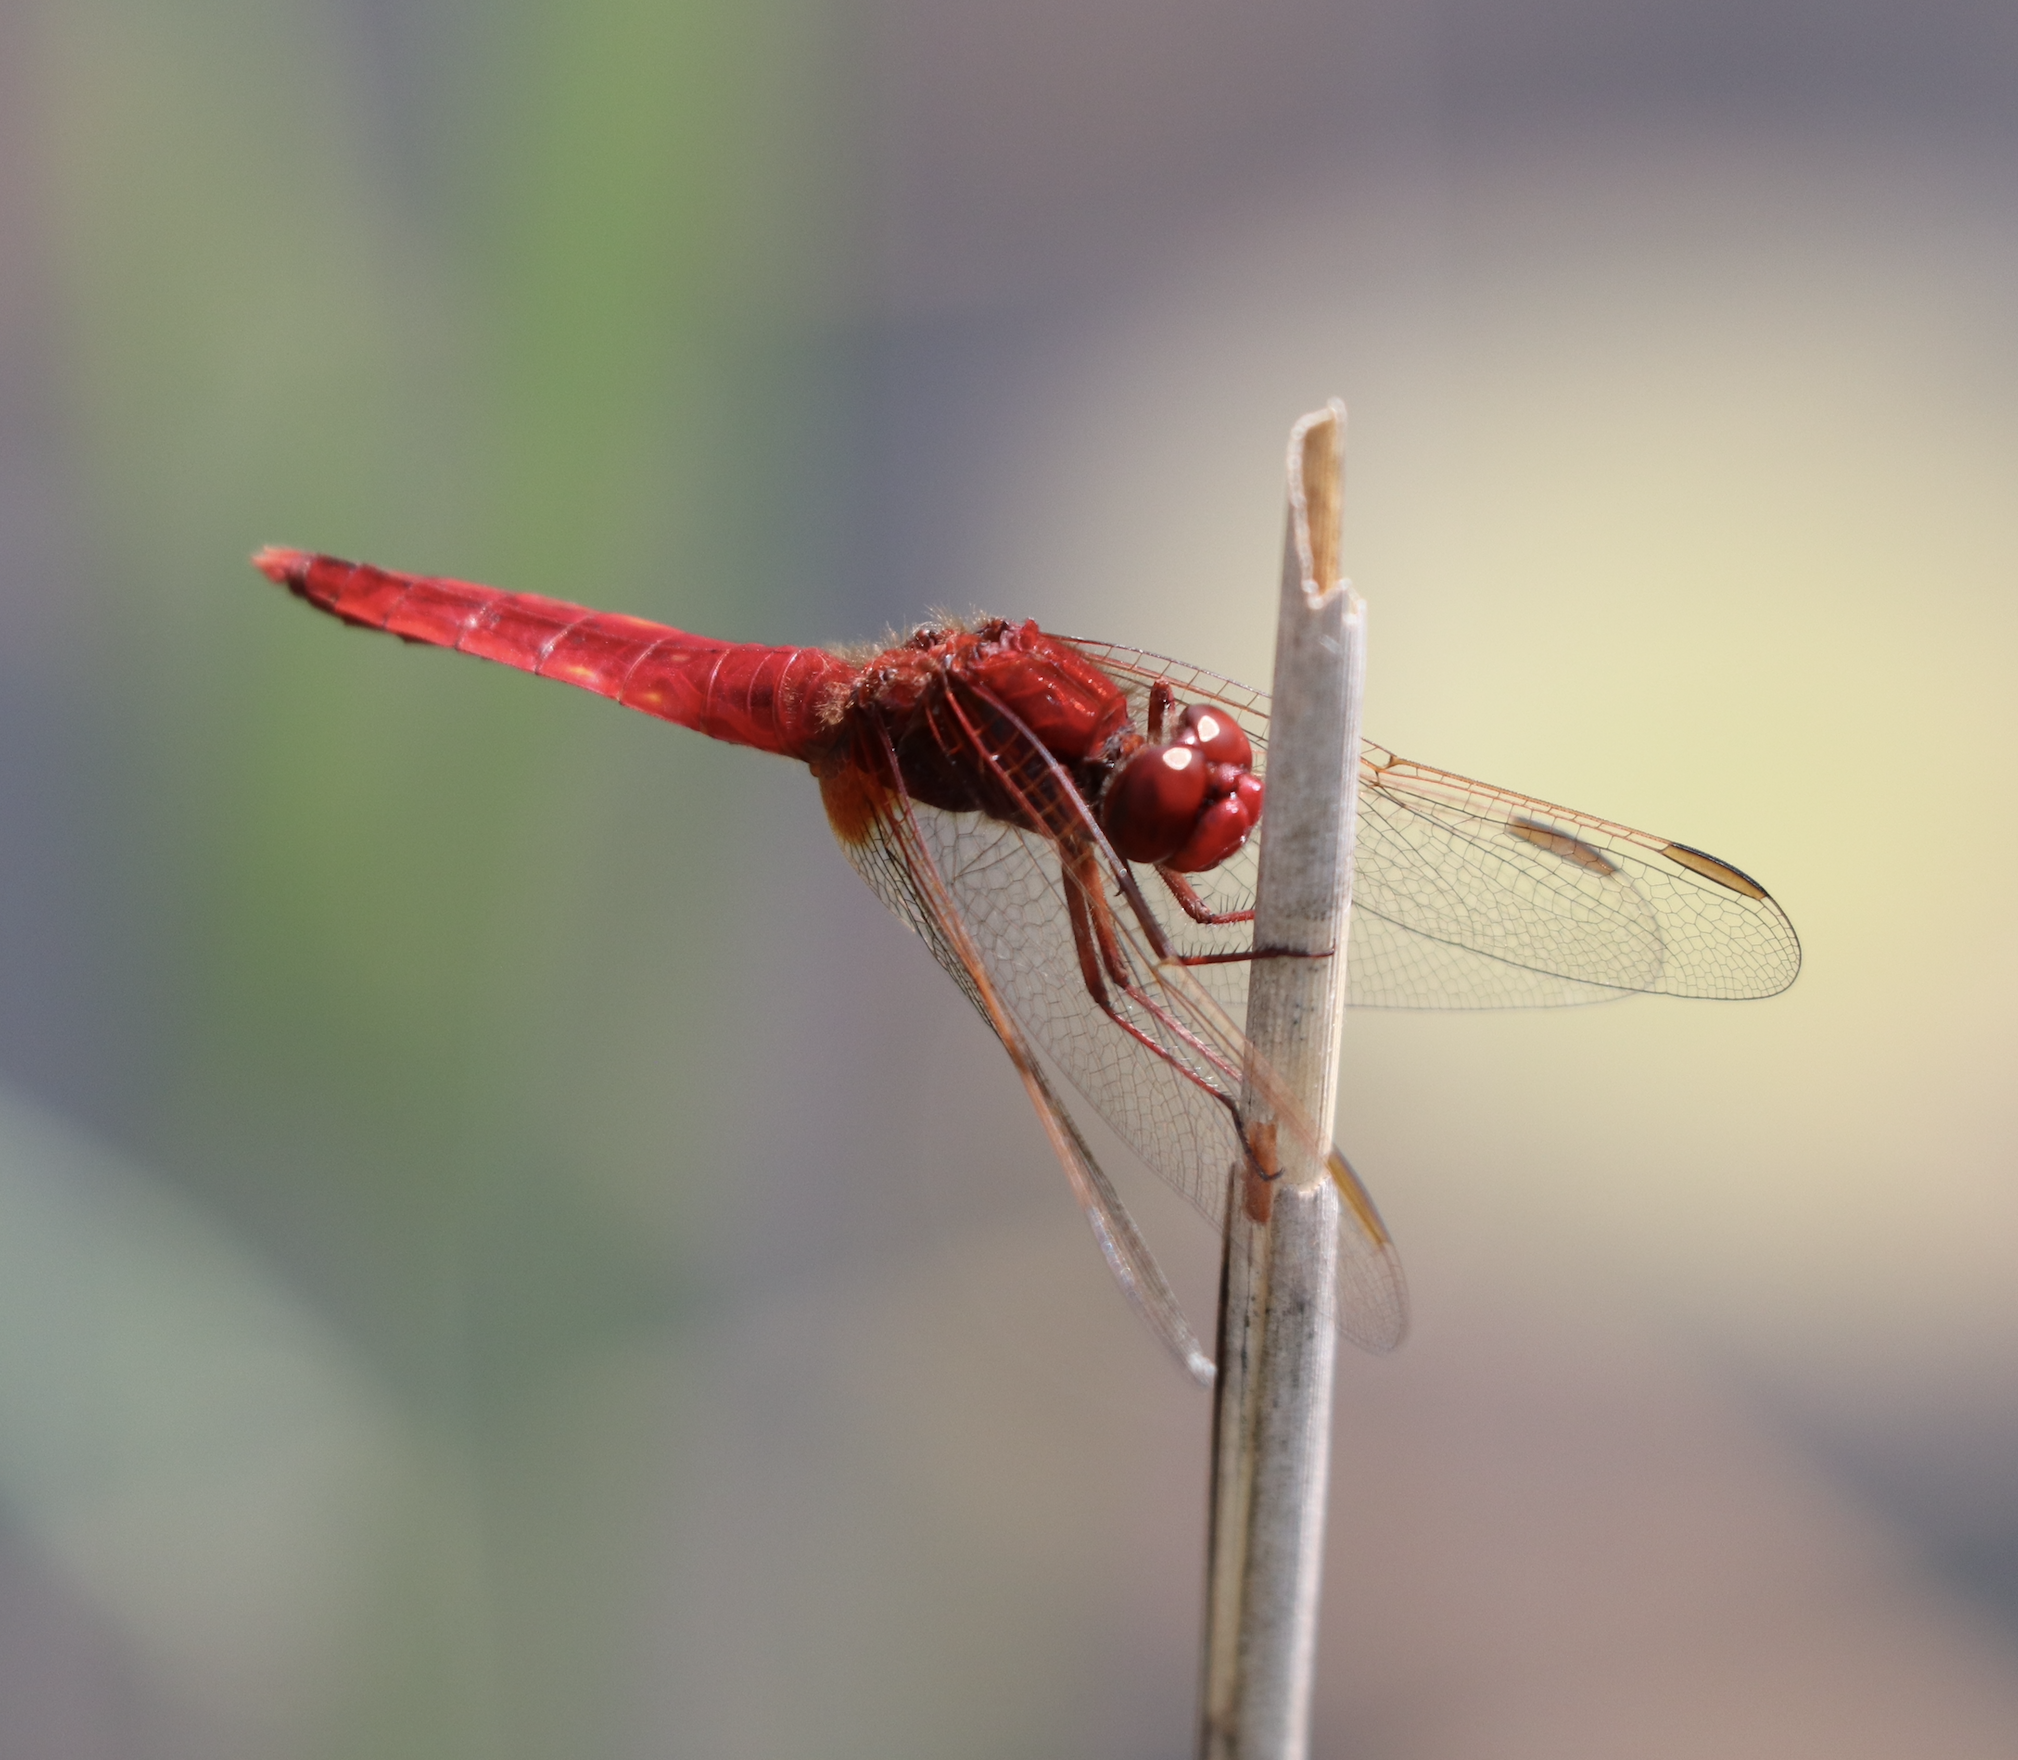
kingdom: Animalia
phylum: Arthropoda
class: Insecta
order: Odonata
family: Libellulidae
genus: Crocothemis
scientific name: Crocothemis erythraea
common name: Scarlet dragonfly
